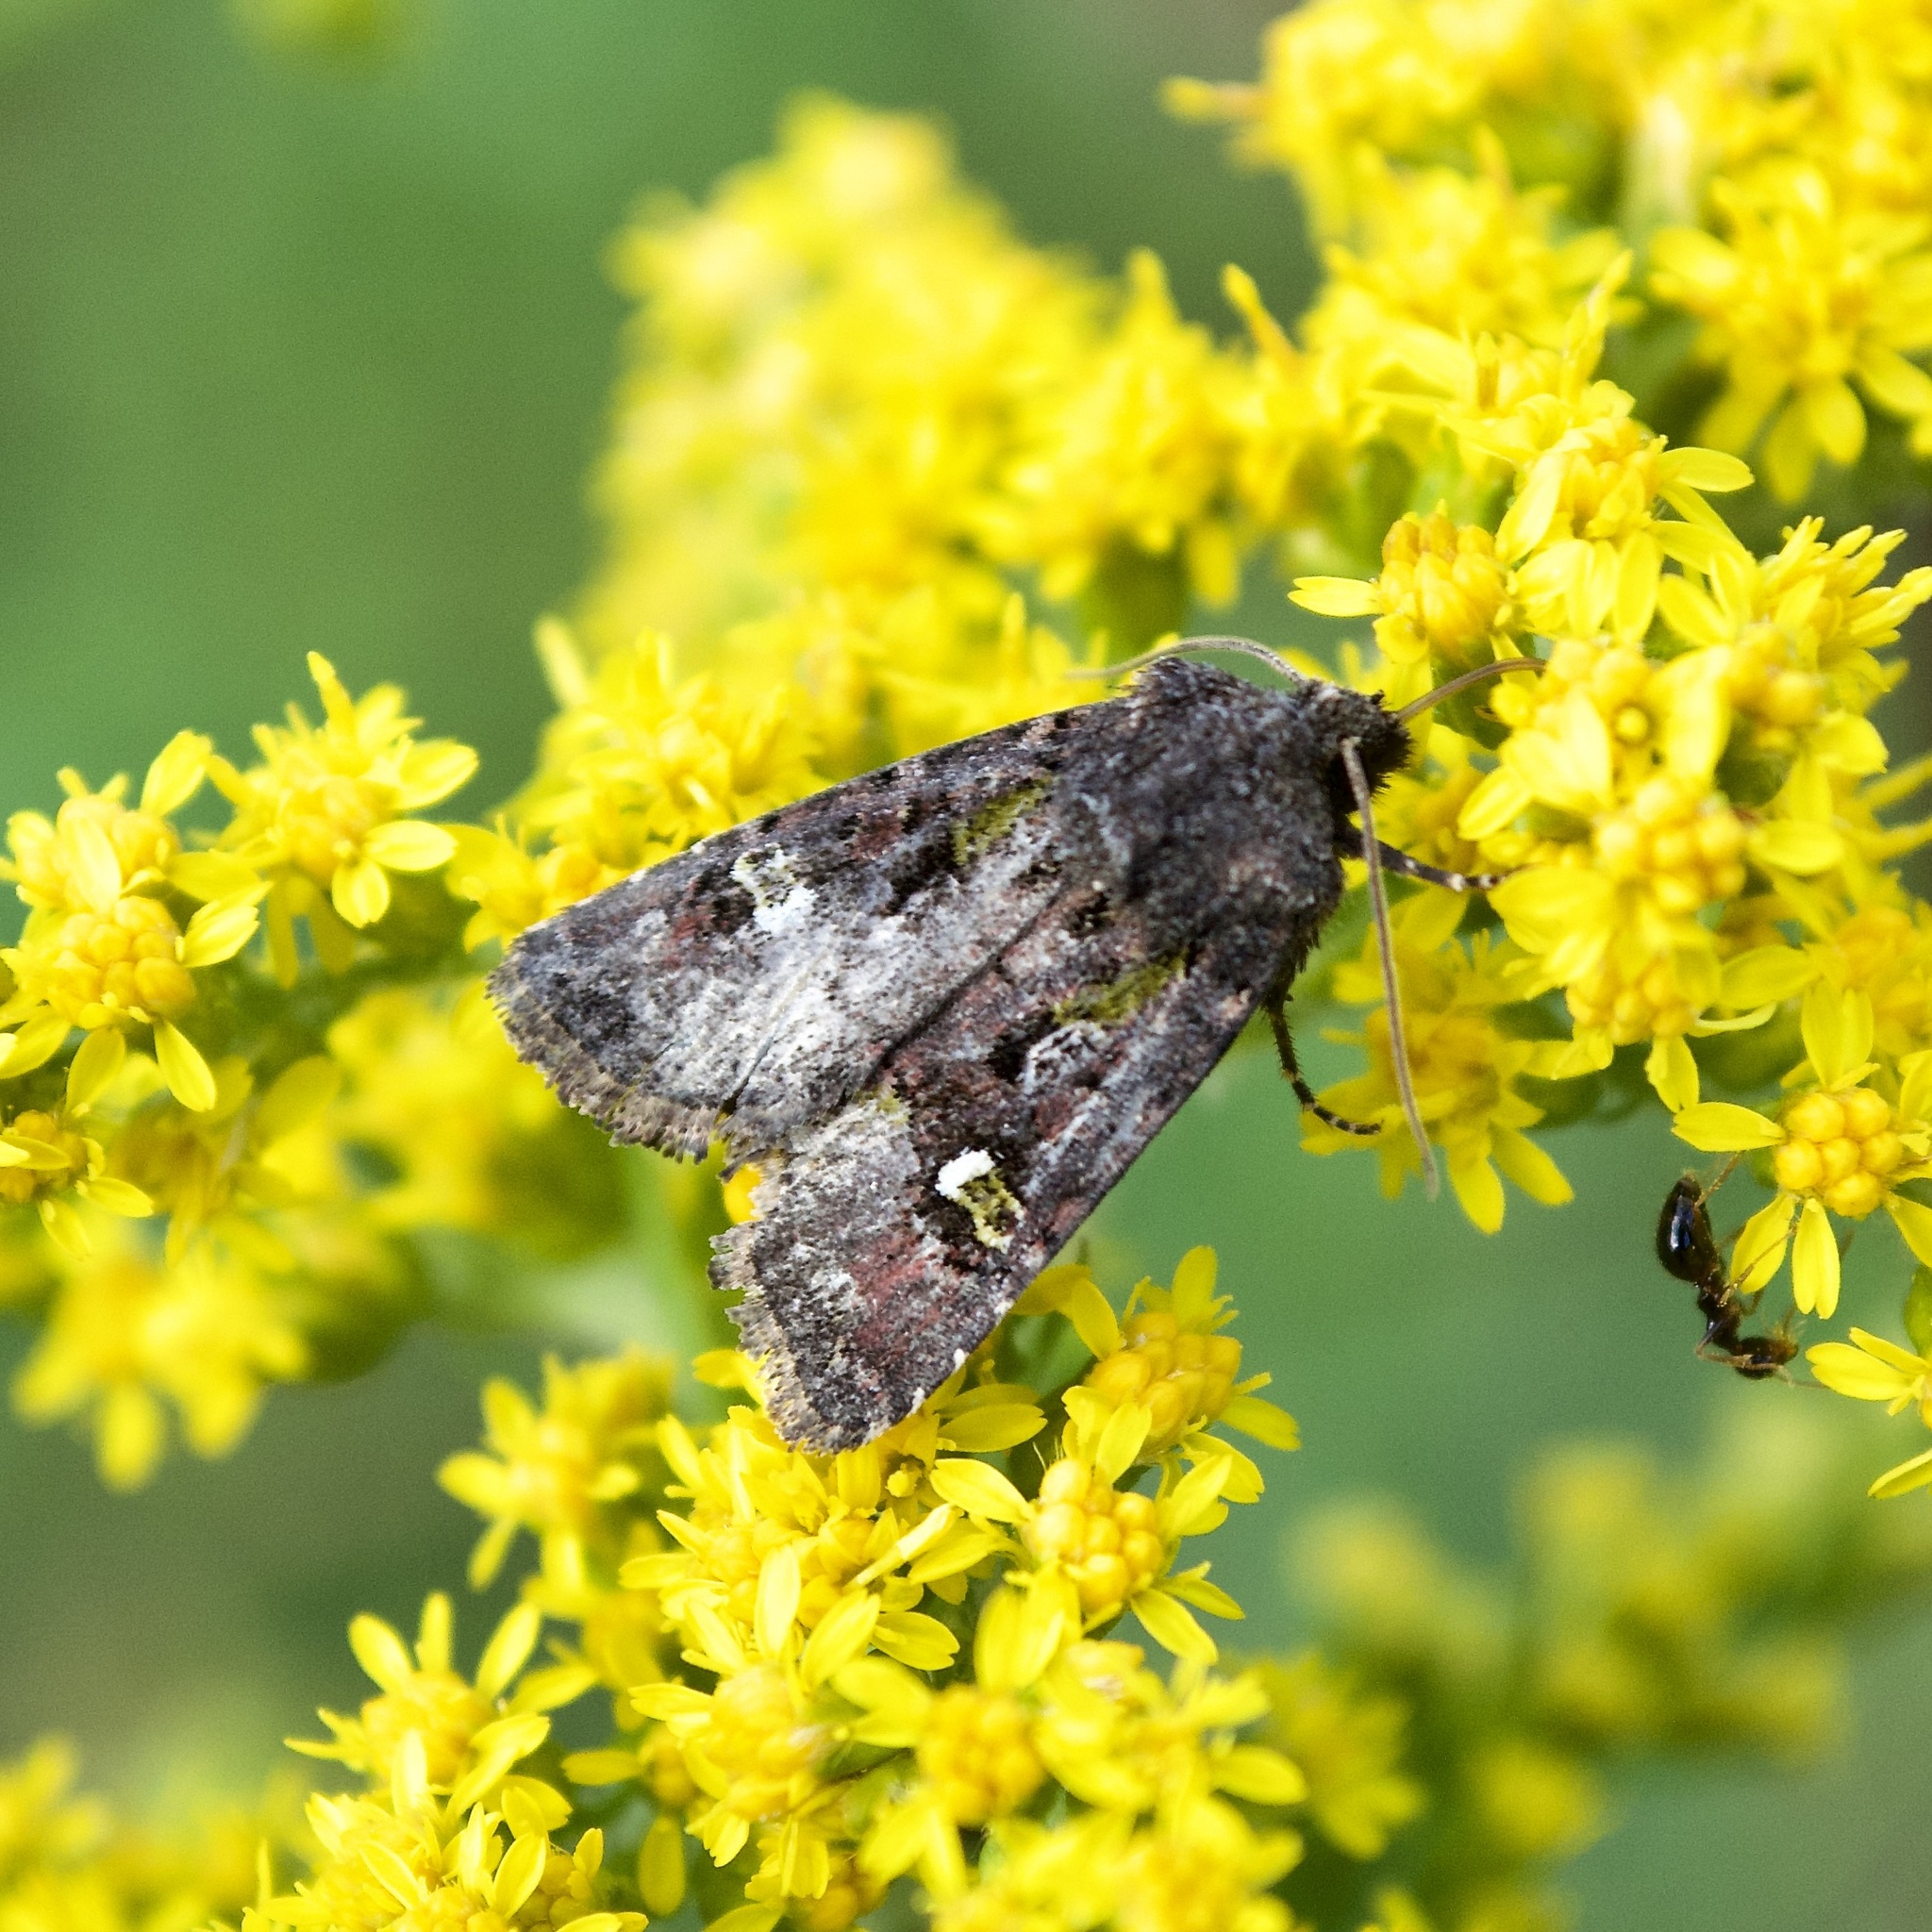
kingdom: Animalia
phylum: Arthropoda
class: Insecta
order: Lepidoptera
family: Noctuidae
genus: Lacinipolia
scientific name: Lacinipolia renigera
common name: Kidney-spotted minor
